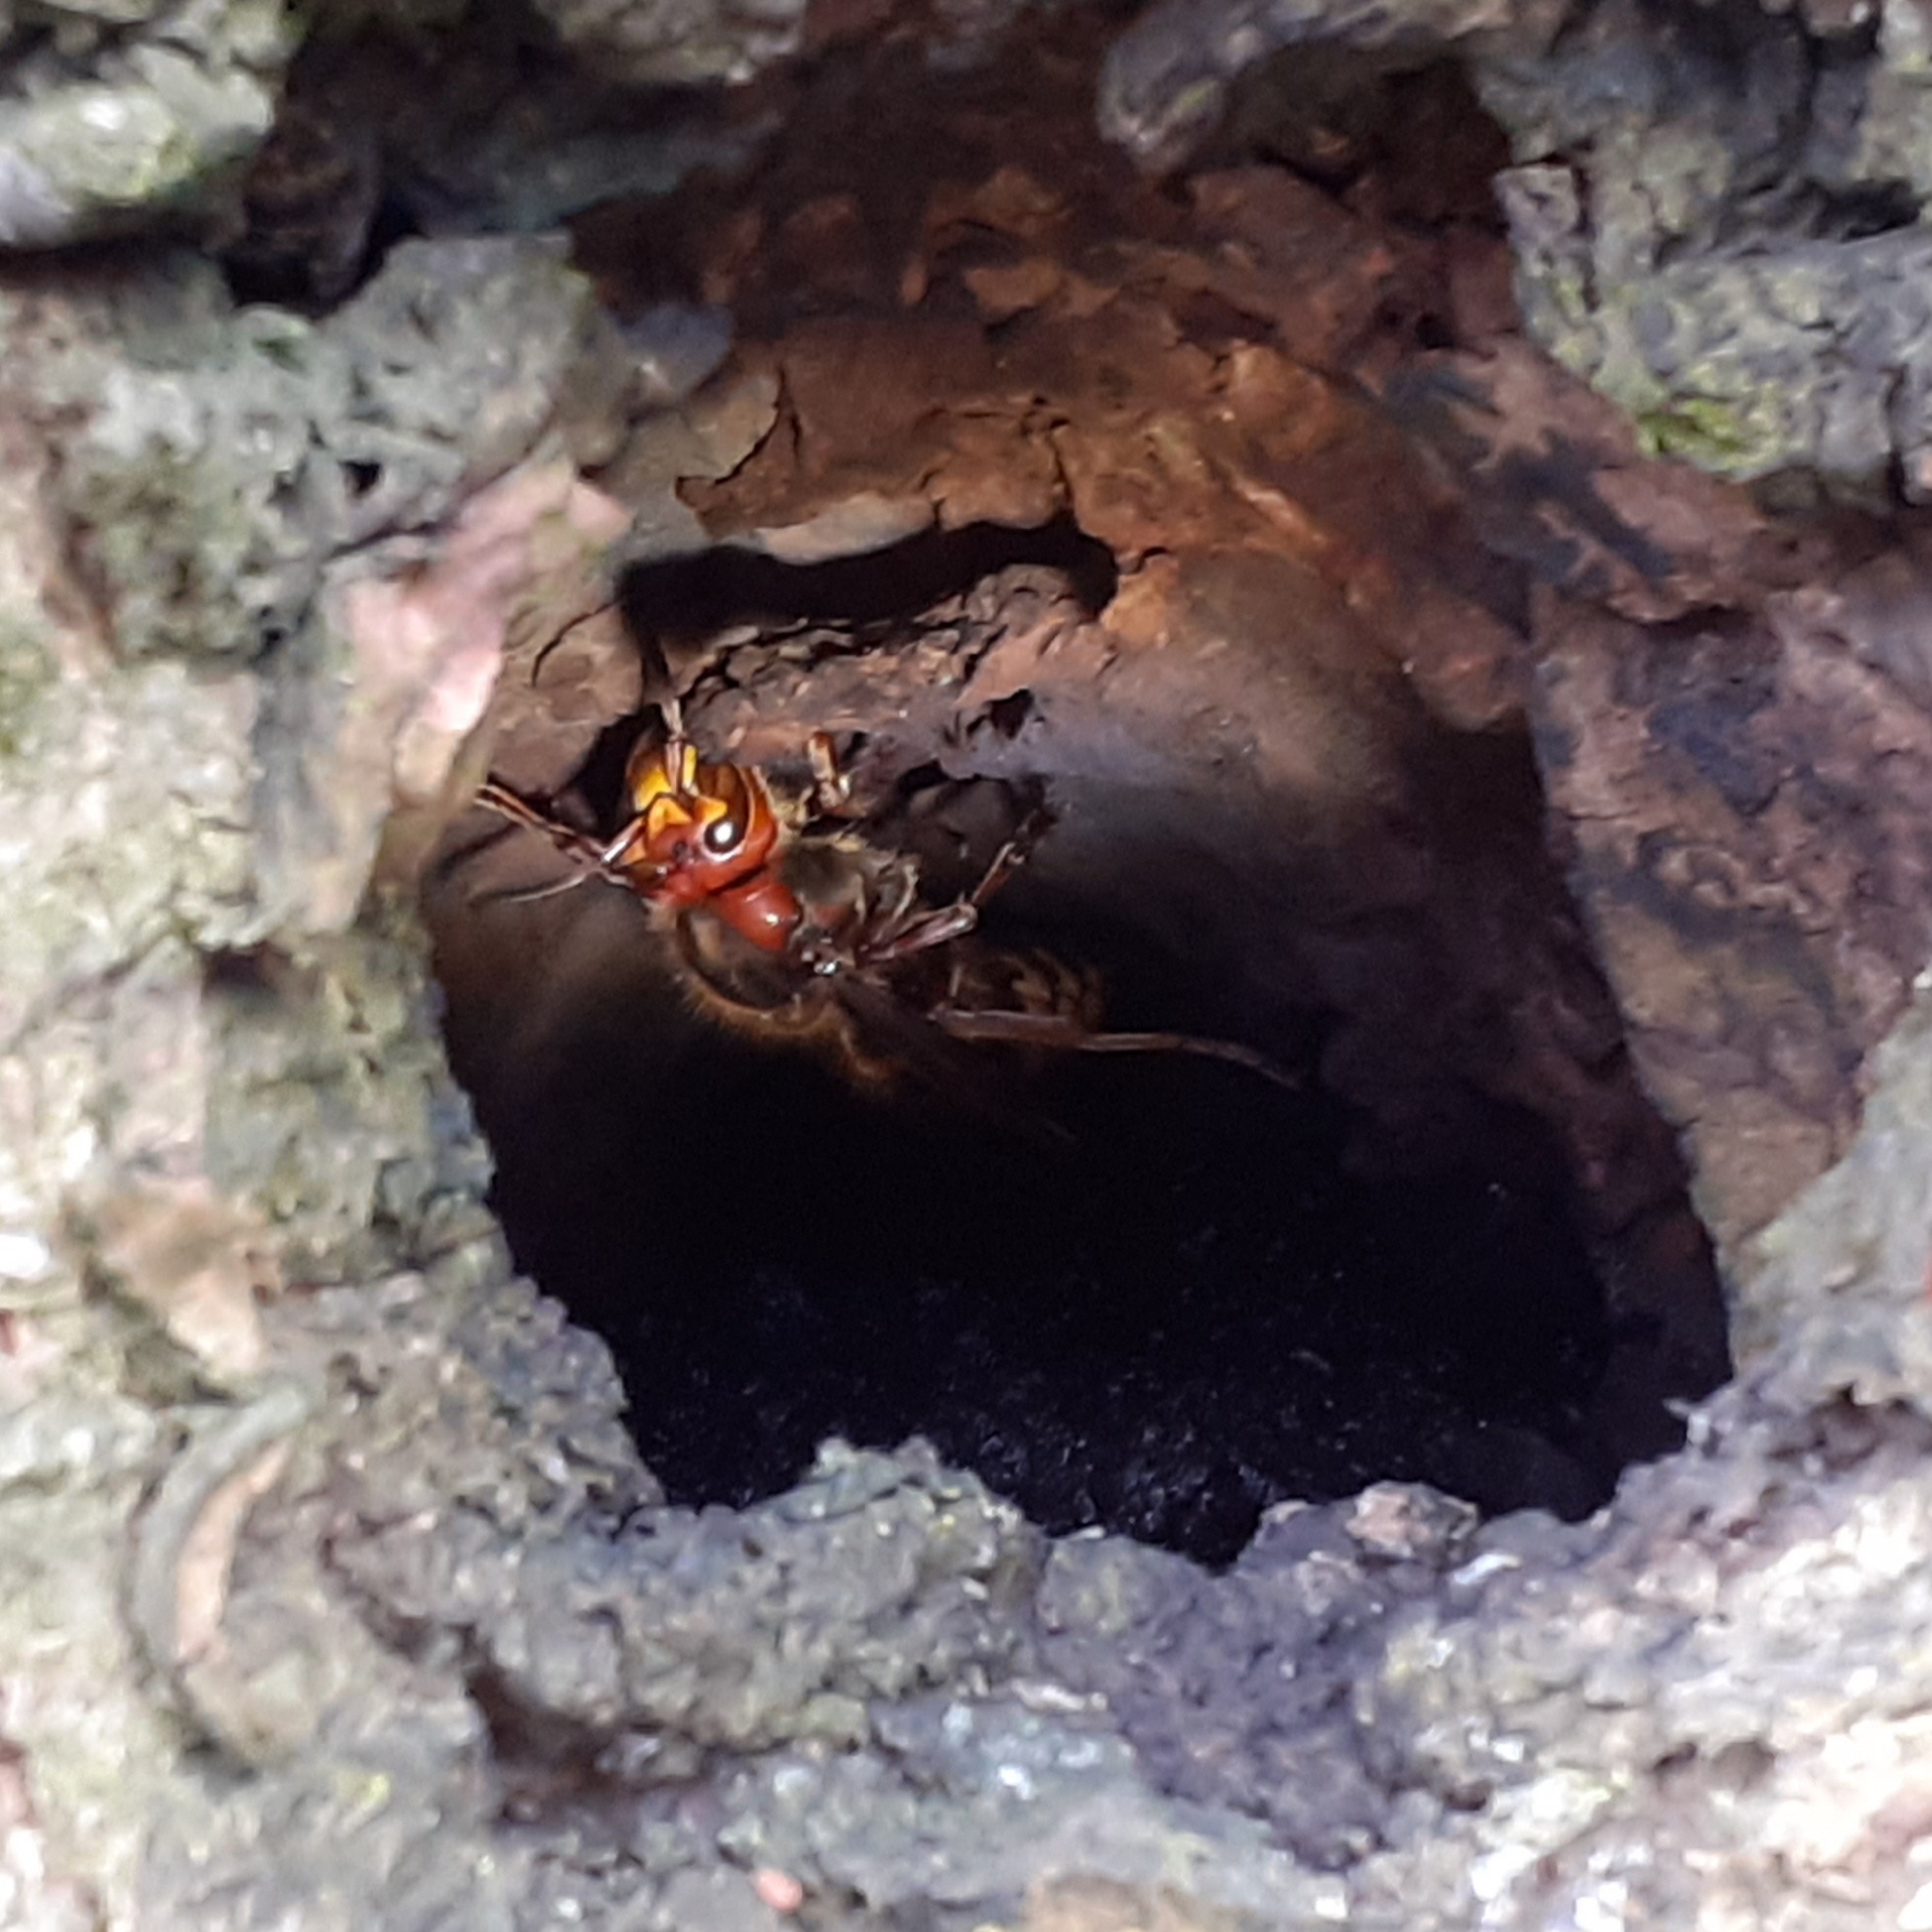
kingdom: Animalia
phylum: Arthropoda
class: Insecta
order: Hymenoptera
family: Vespidae
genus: Vespa
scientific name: Vespa crabro
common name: Hornet
